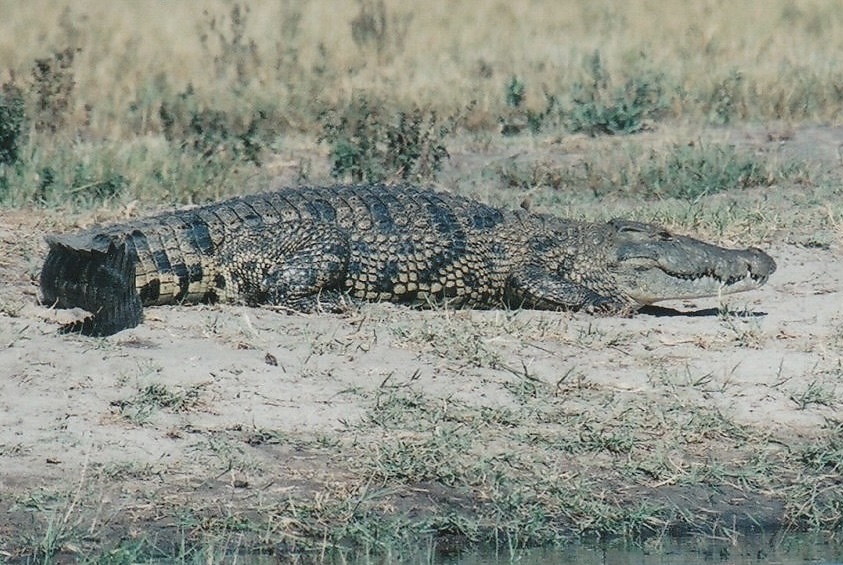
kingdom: Animalia
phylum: Chordata
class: Crocodylia
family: Crocodylidae
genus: Crocodylus
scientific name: Crocodylus niloticus
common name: Nile crocodile
